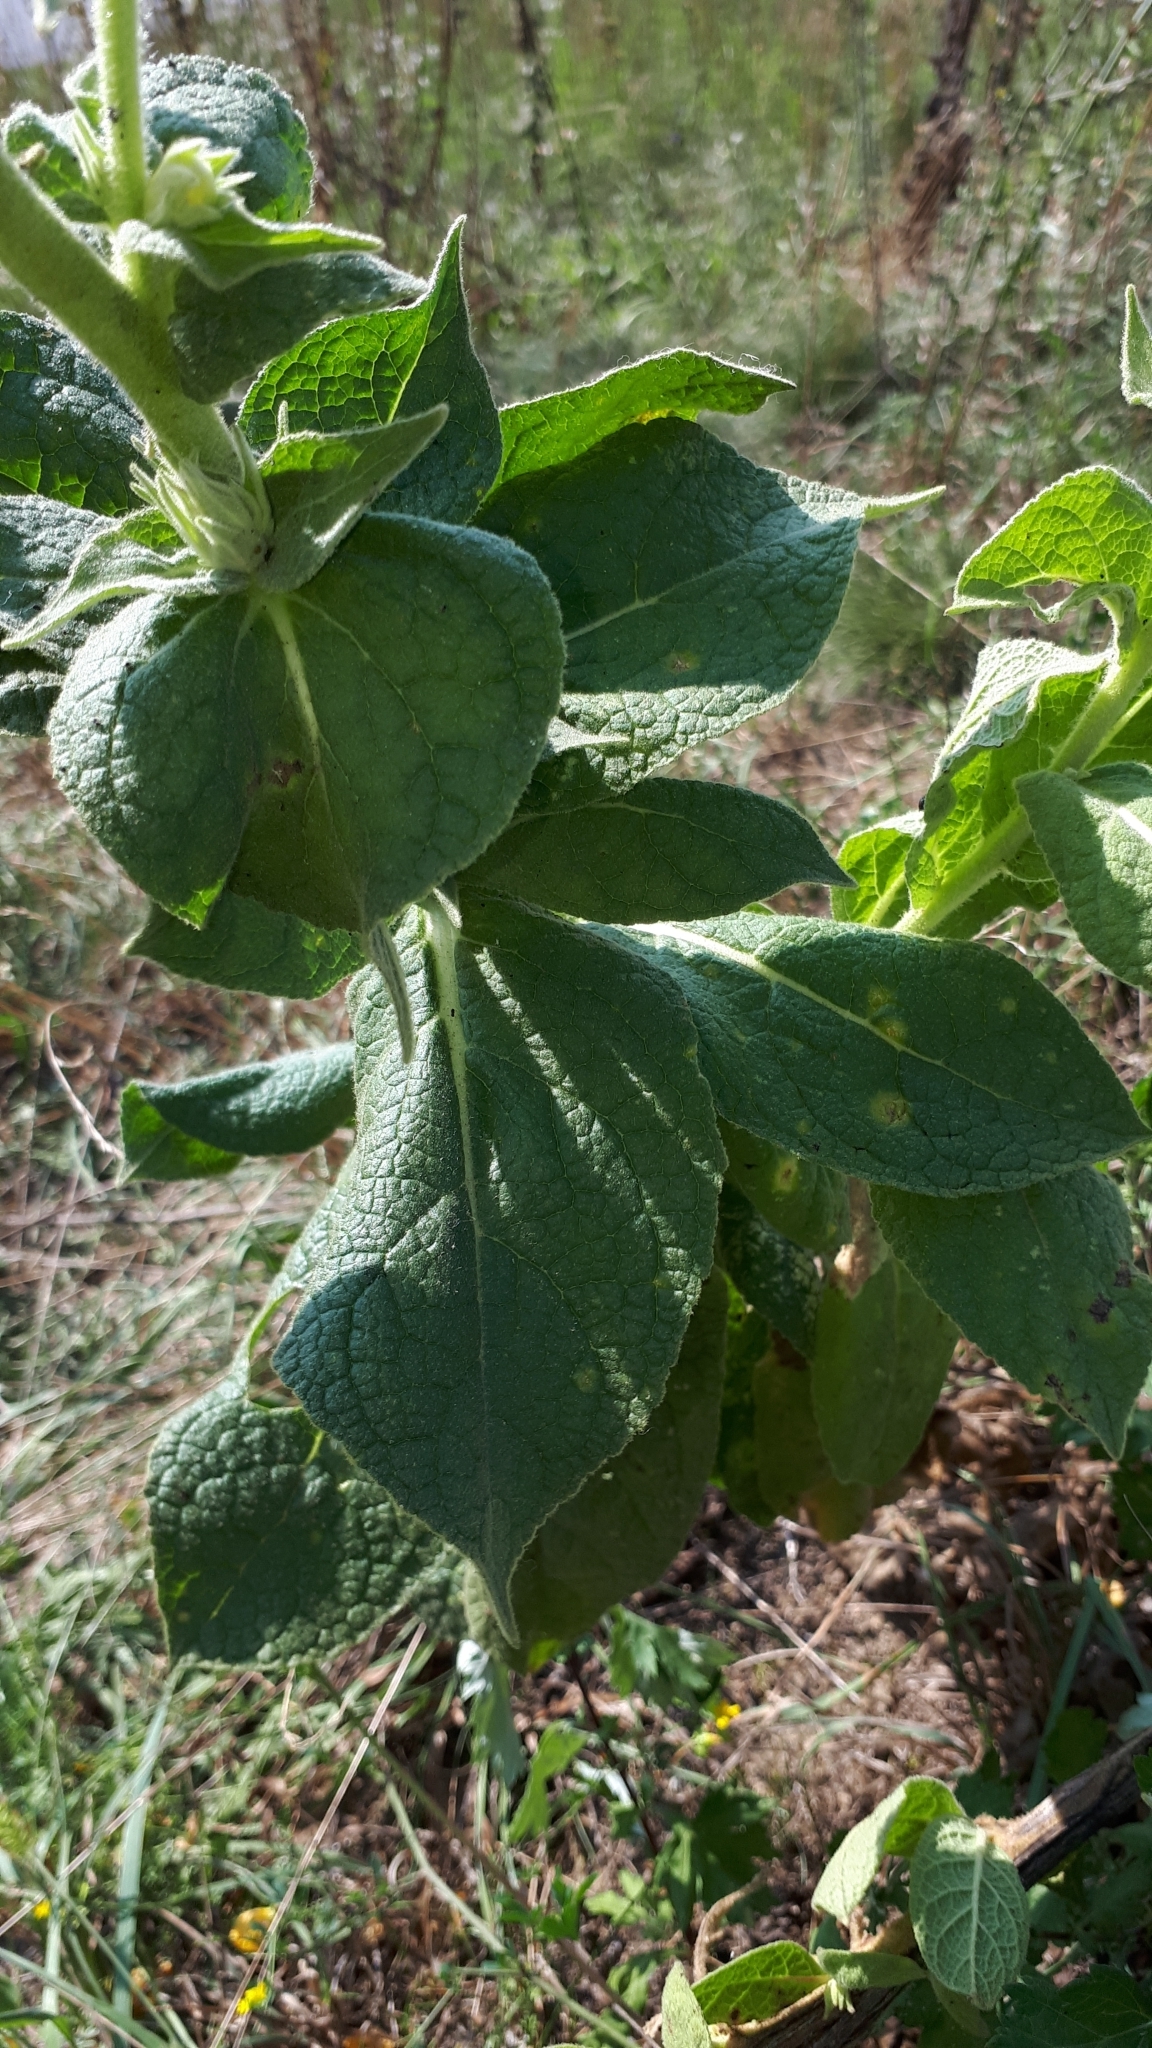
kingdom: Plantae
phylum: Tracheophyta
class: Magnoliopsida
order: Lamiales
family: Scrophulariaceae
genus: Verbascum
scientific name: Verbascum phlomoides
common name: Orange mullein
